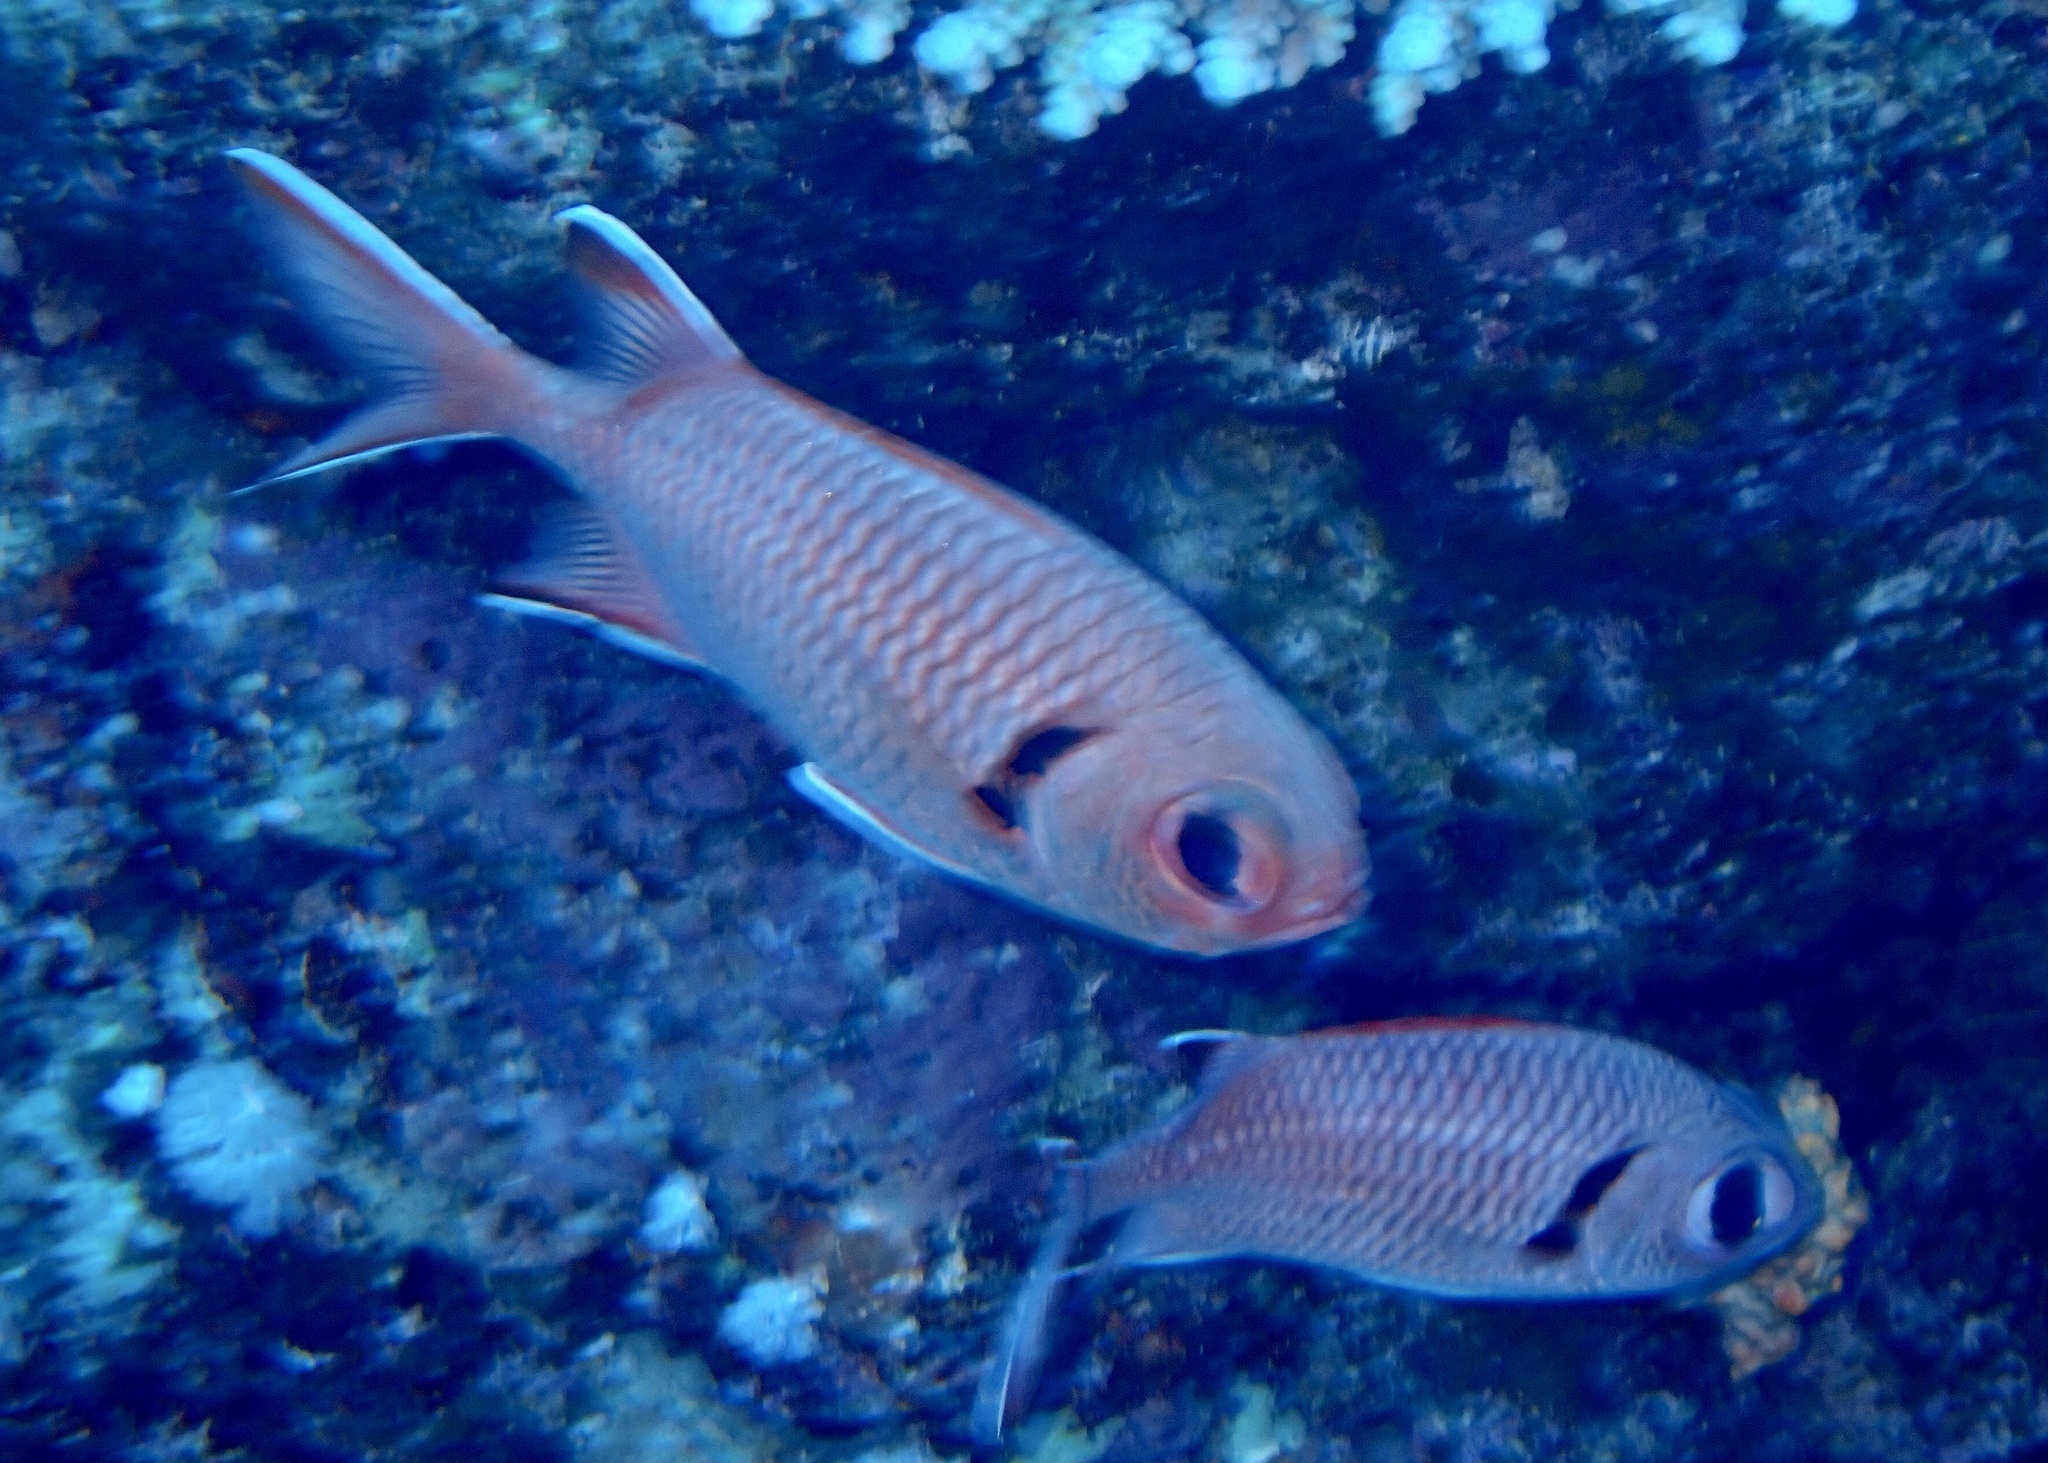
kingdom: Animalia
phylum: Chordata
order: Beryciformes
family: Holocentridae
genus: Myripristis
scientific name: Myripristis murdjan
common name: Big-eye soldierfish
